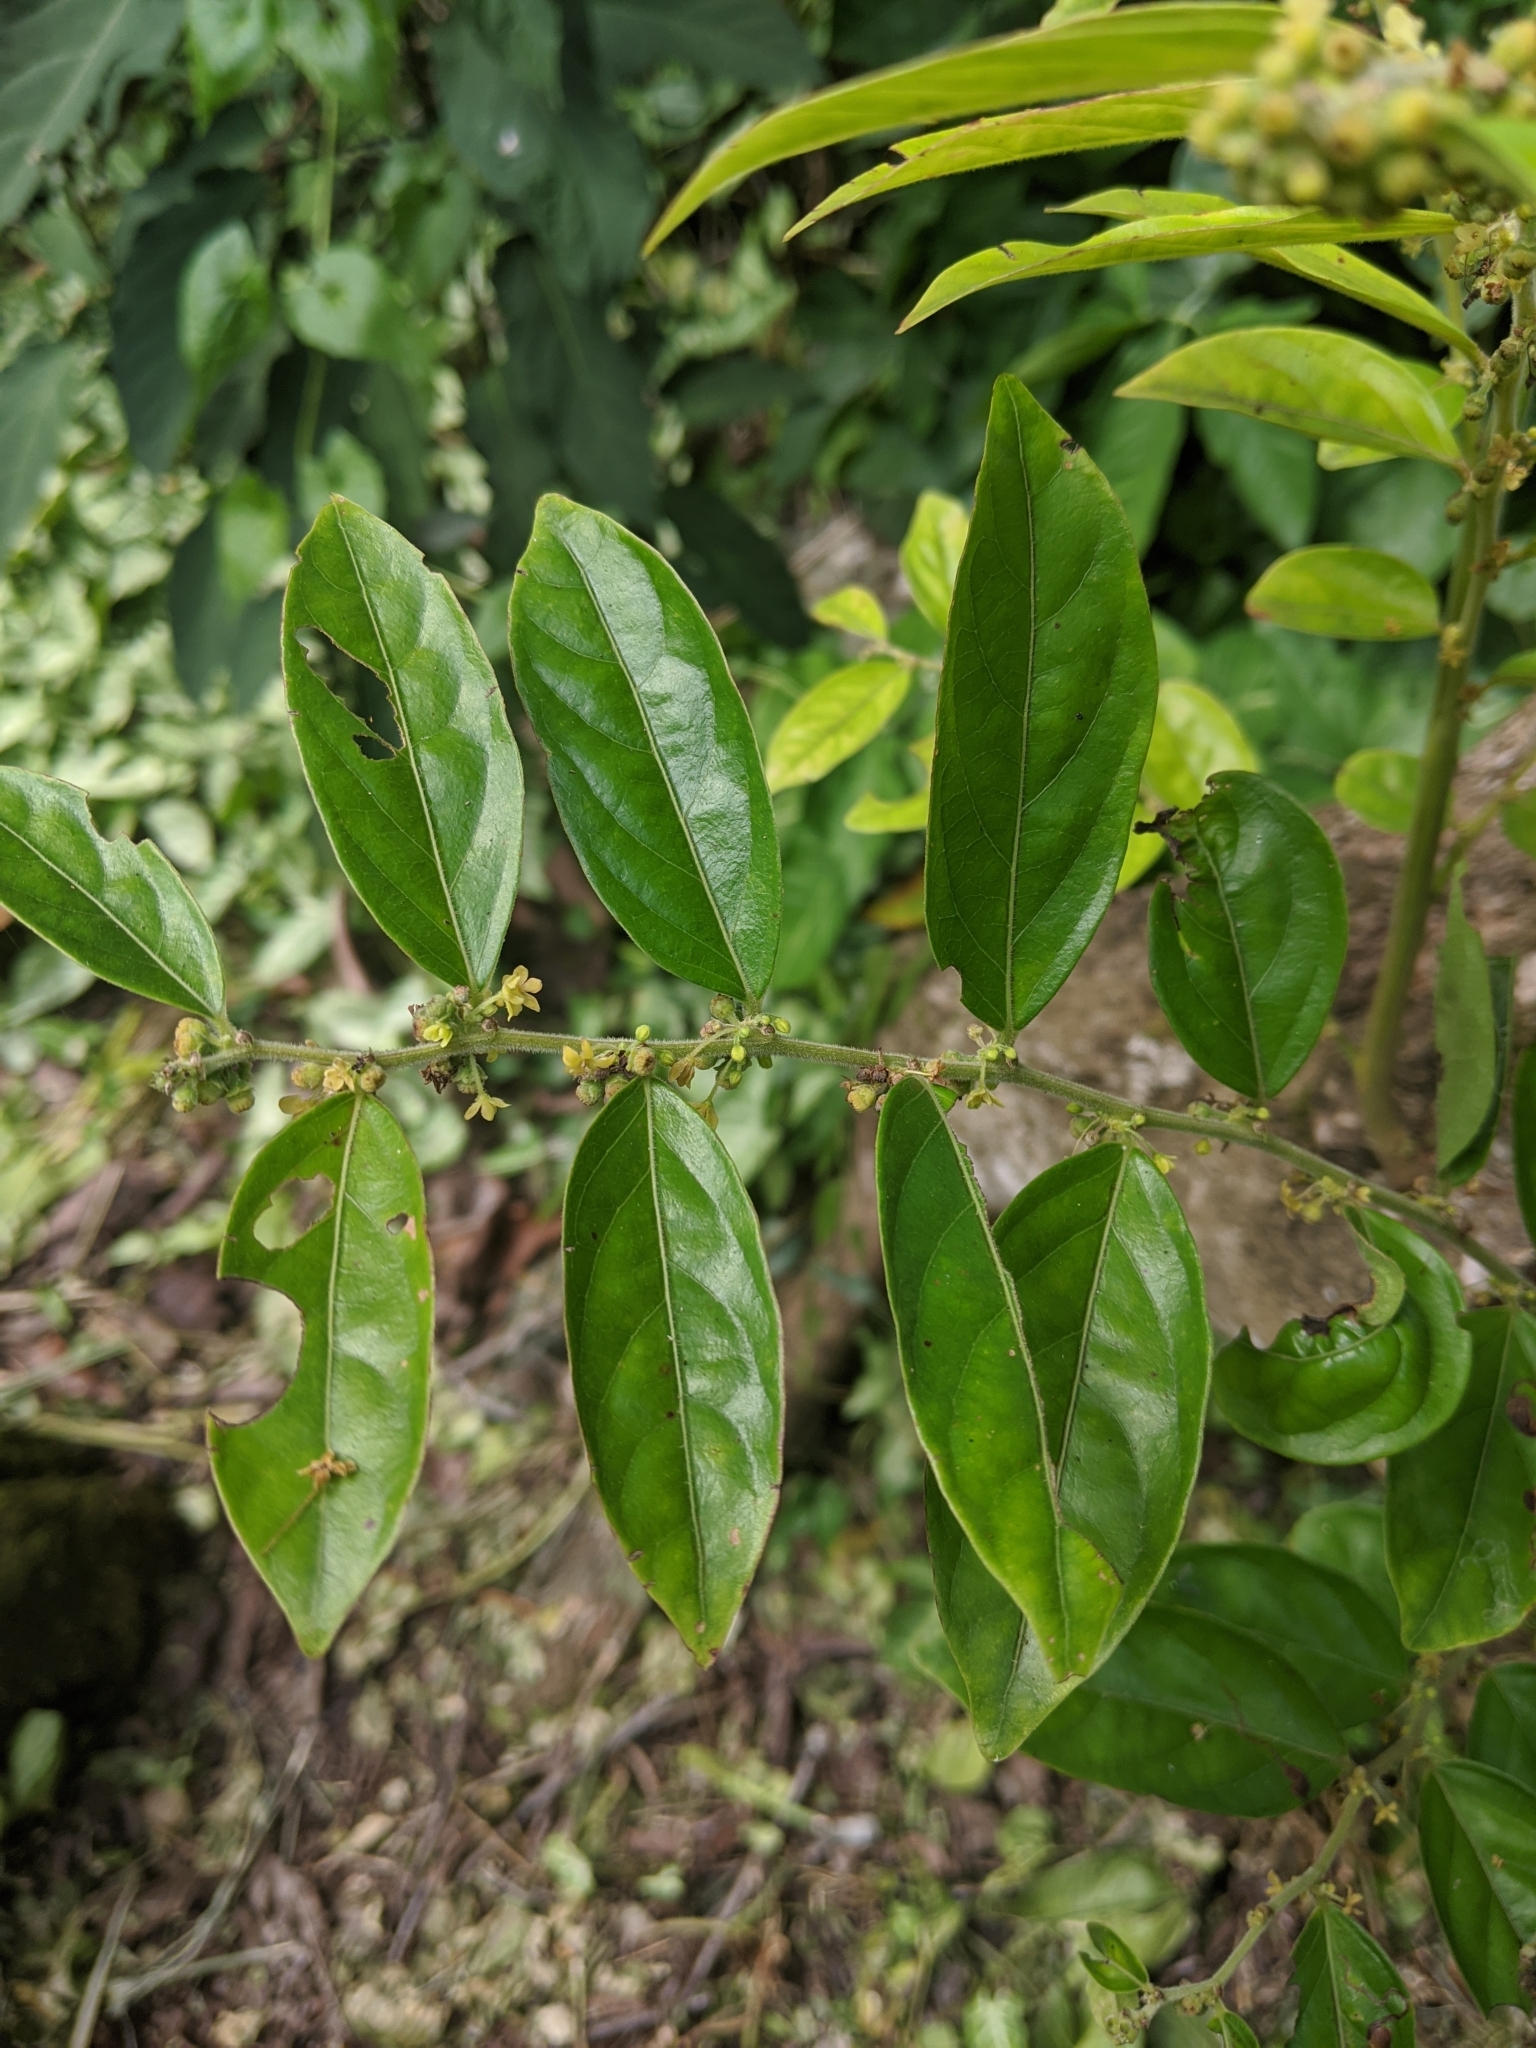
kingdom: Plantae
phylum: Tracheophyta
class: Magnoliopsida
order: Malpighiales
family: Phyllanthaceae
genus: Glochidion
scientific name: Glochidion philippicum
